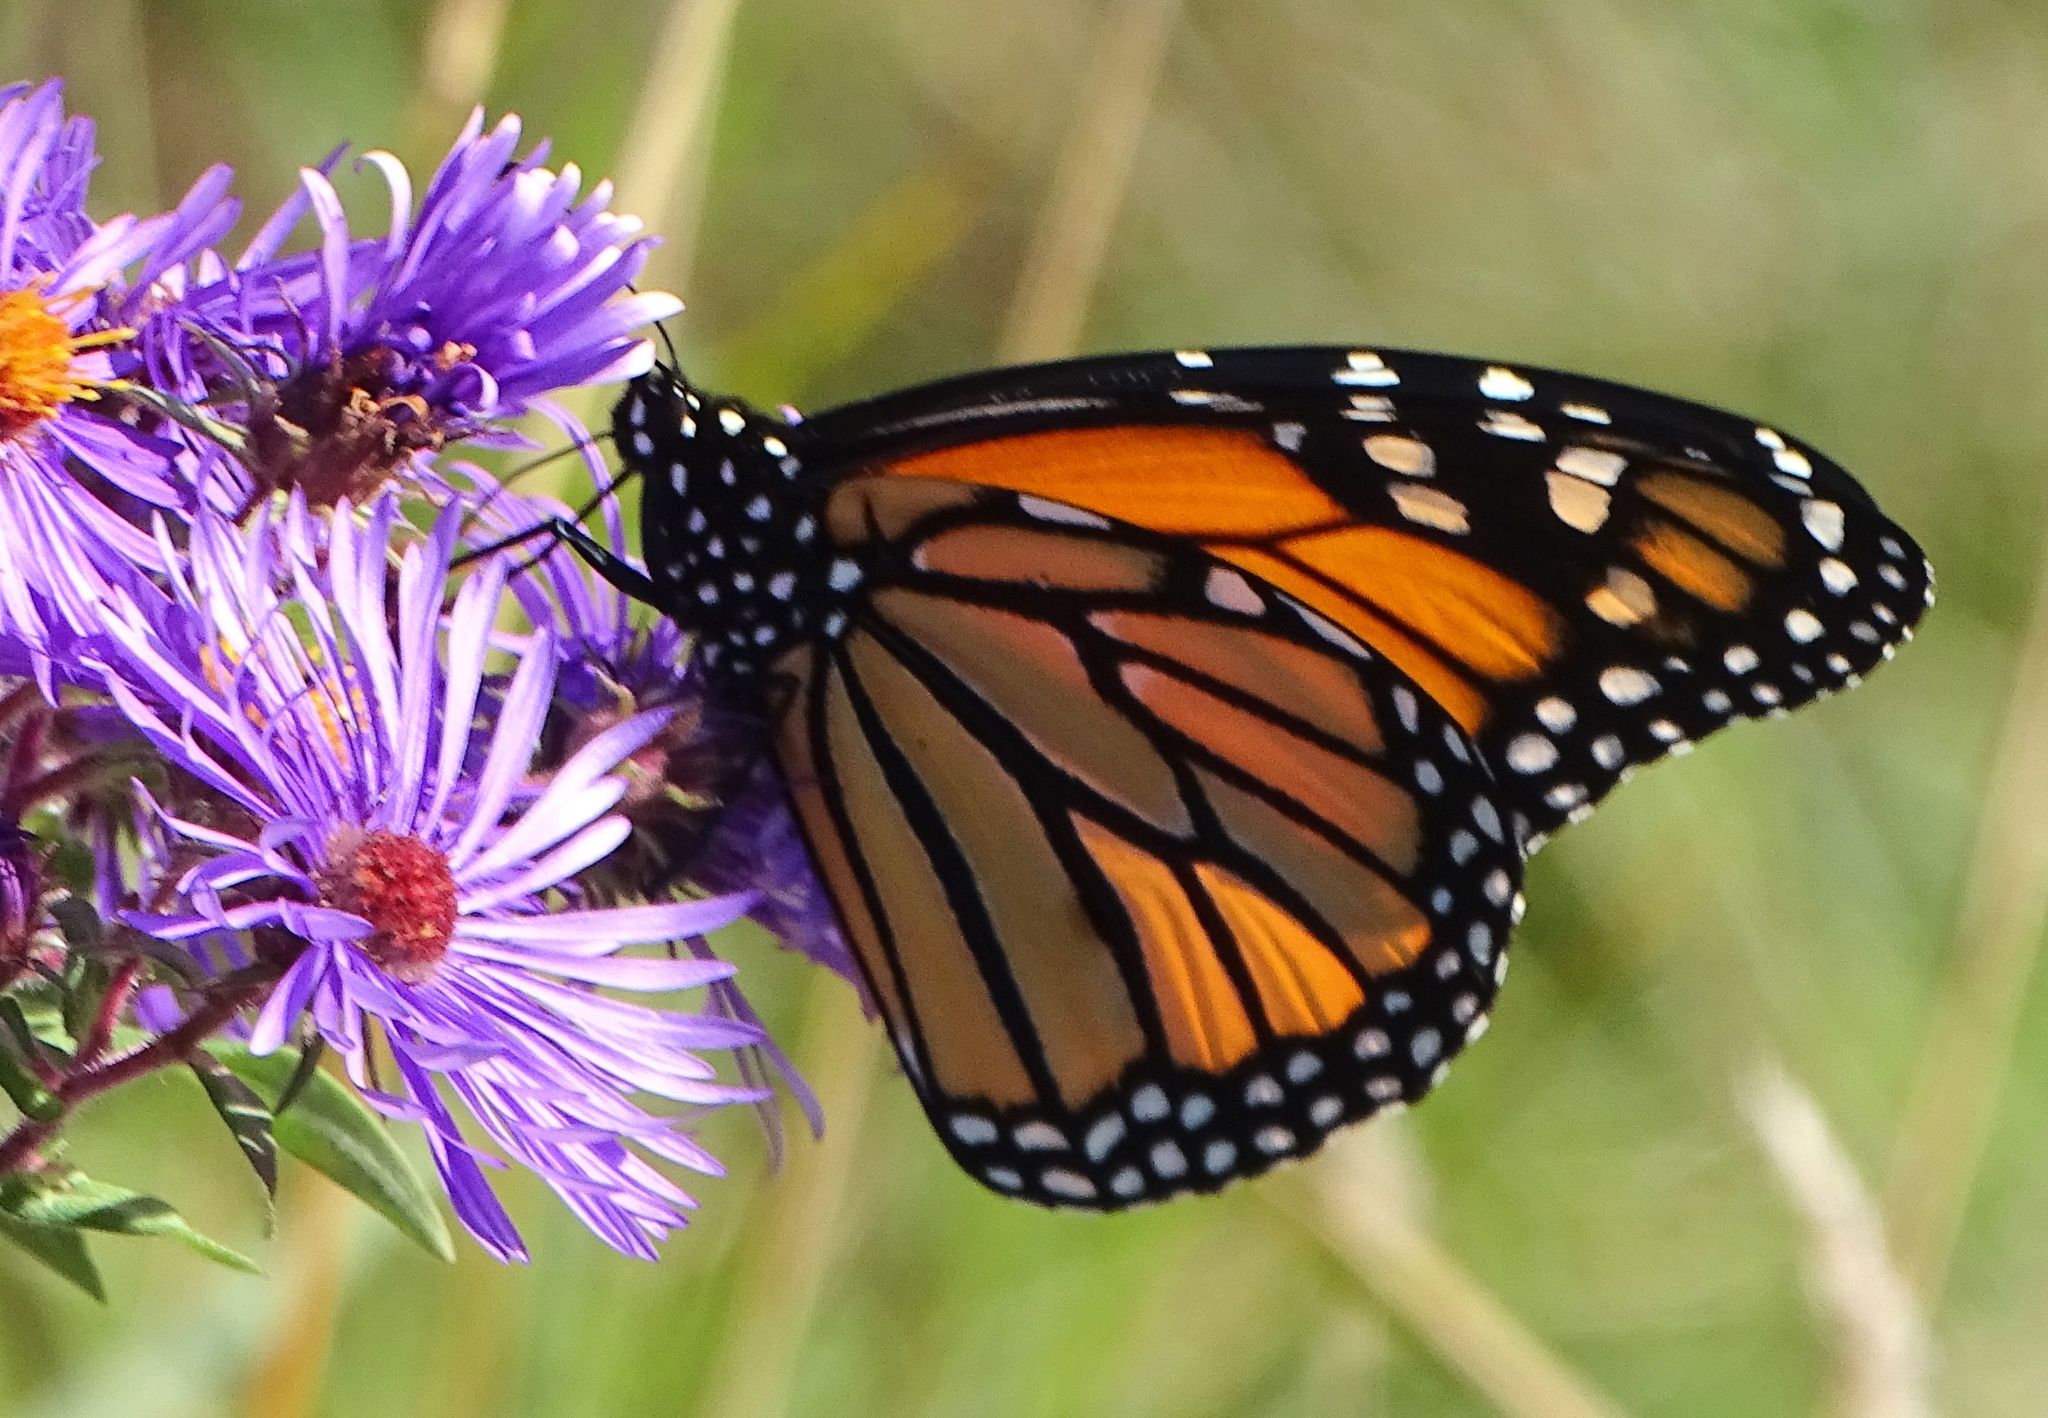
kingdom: Animalia
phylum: Arthropoda
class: Insecta
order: Lepidoptera
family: Nymphalidae
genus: Danaus
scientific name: Danaus plexippus
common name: Monarch
